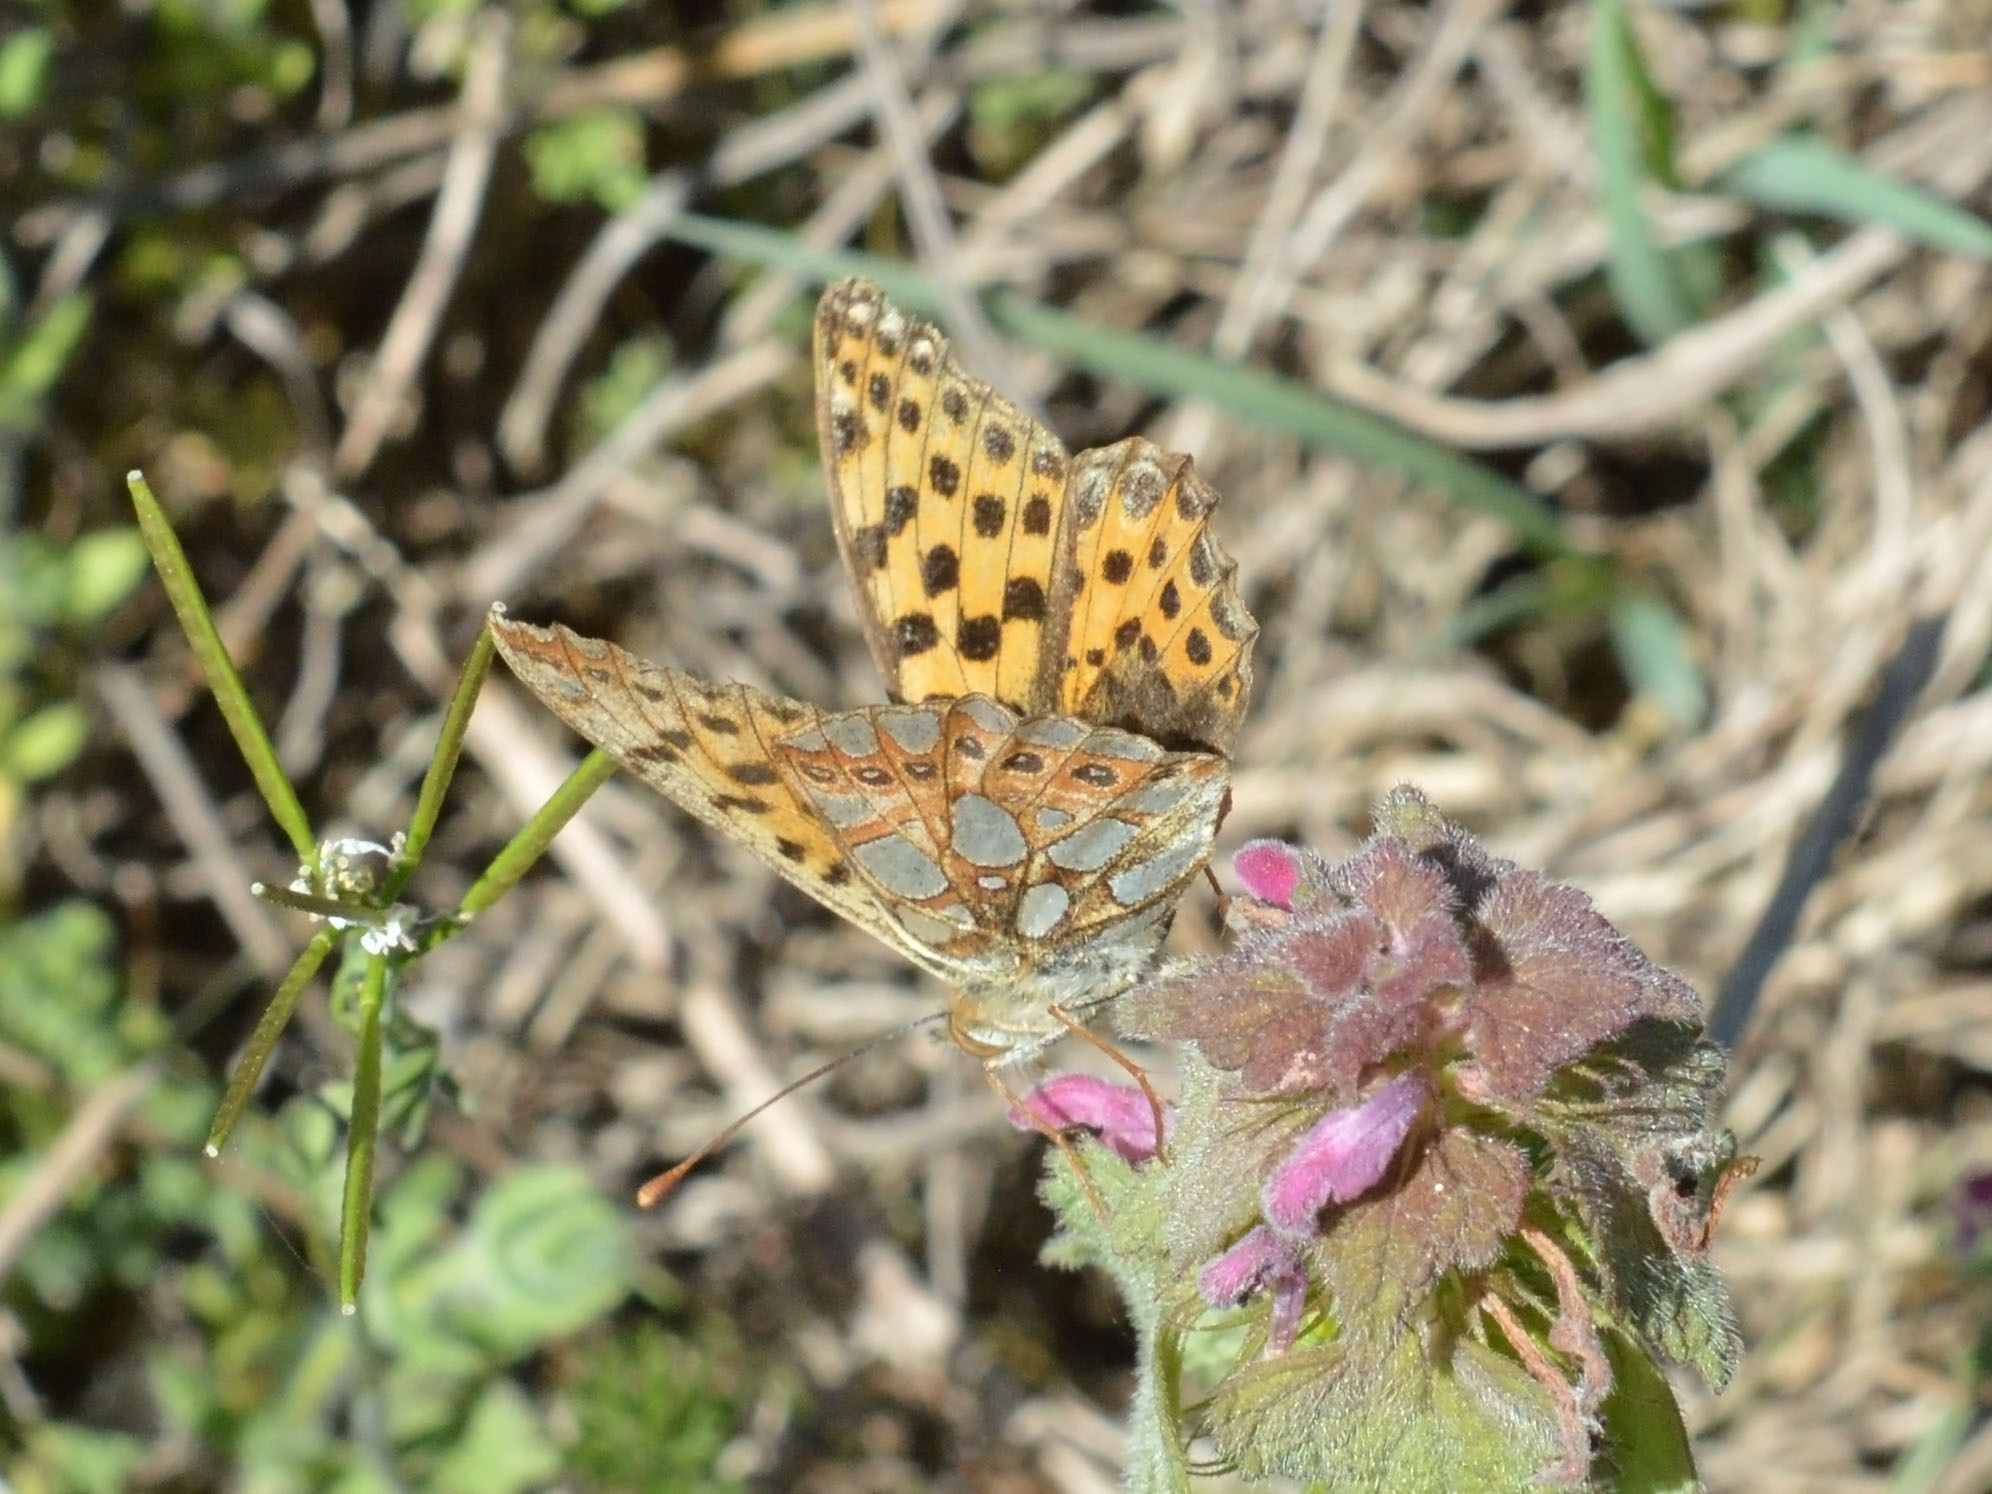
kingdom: Animalia
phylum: Arthropoda
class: Insecta
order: Lepidoptera
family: Nymphalidae
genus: Issoria
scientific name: Issoria lathonia
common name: Queen of spain fritillary
